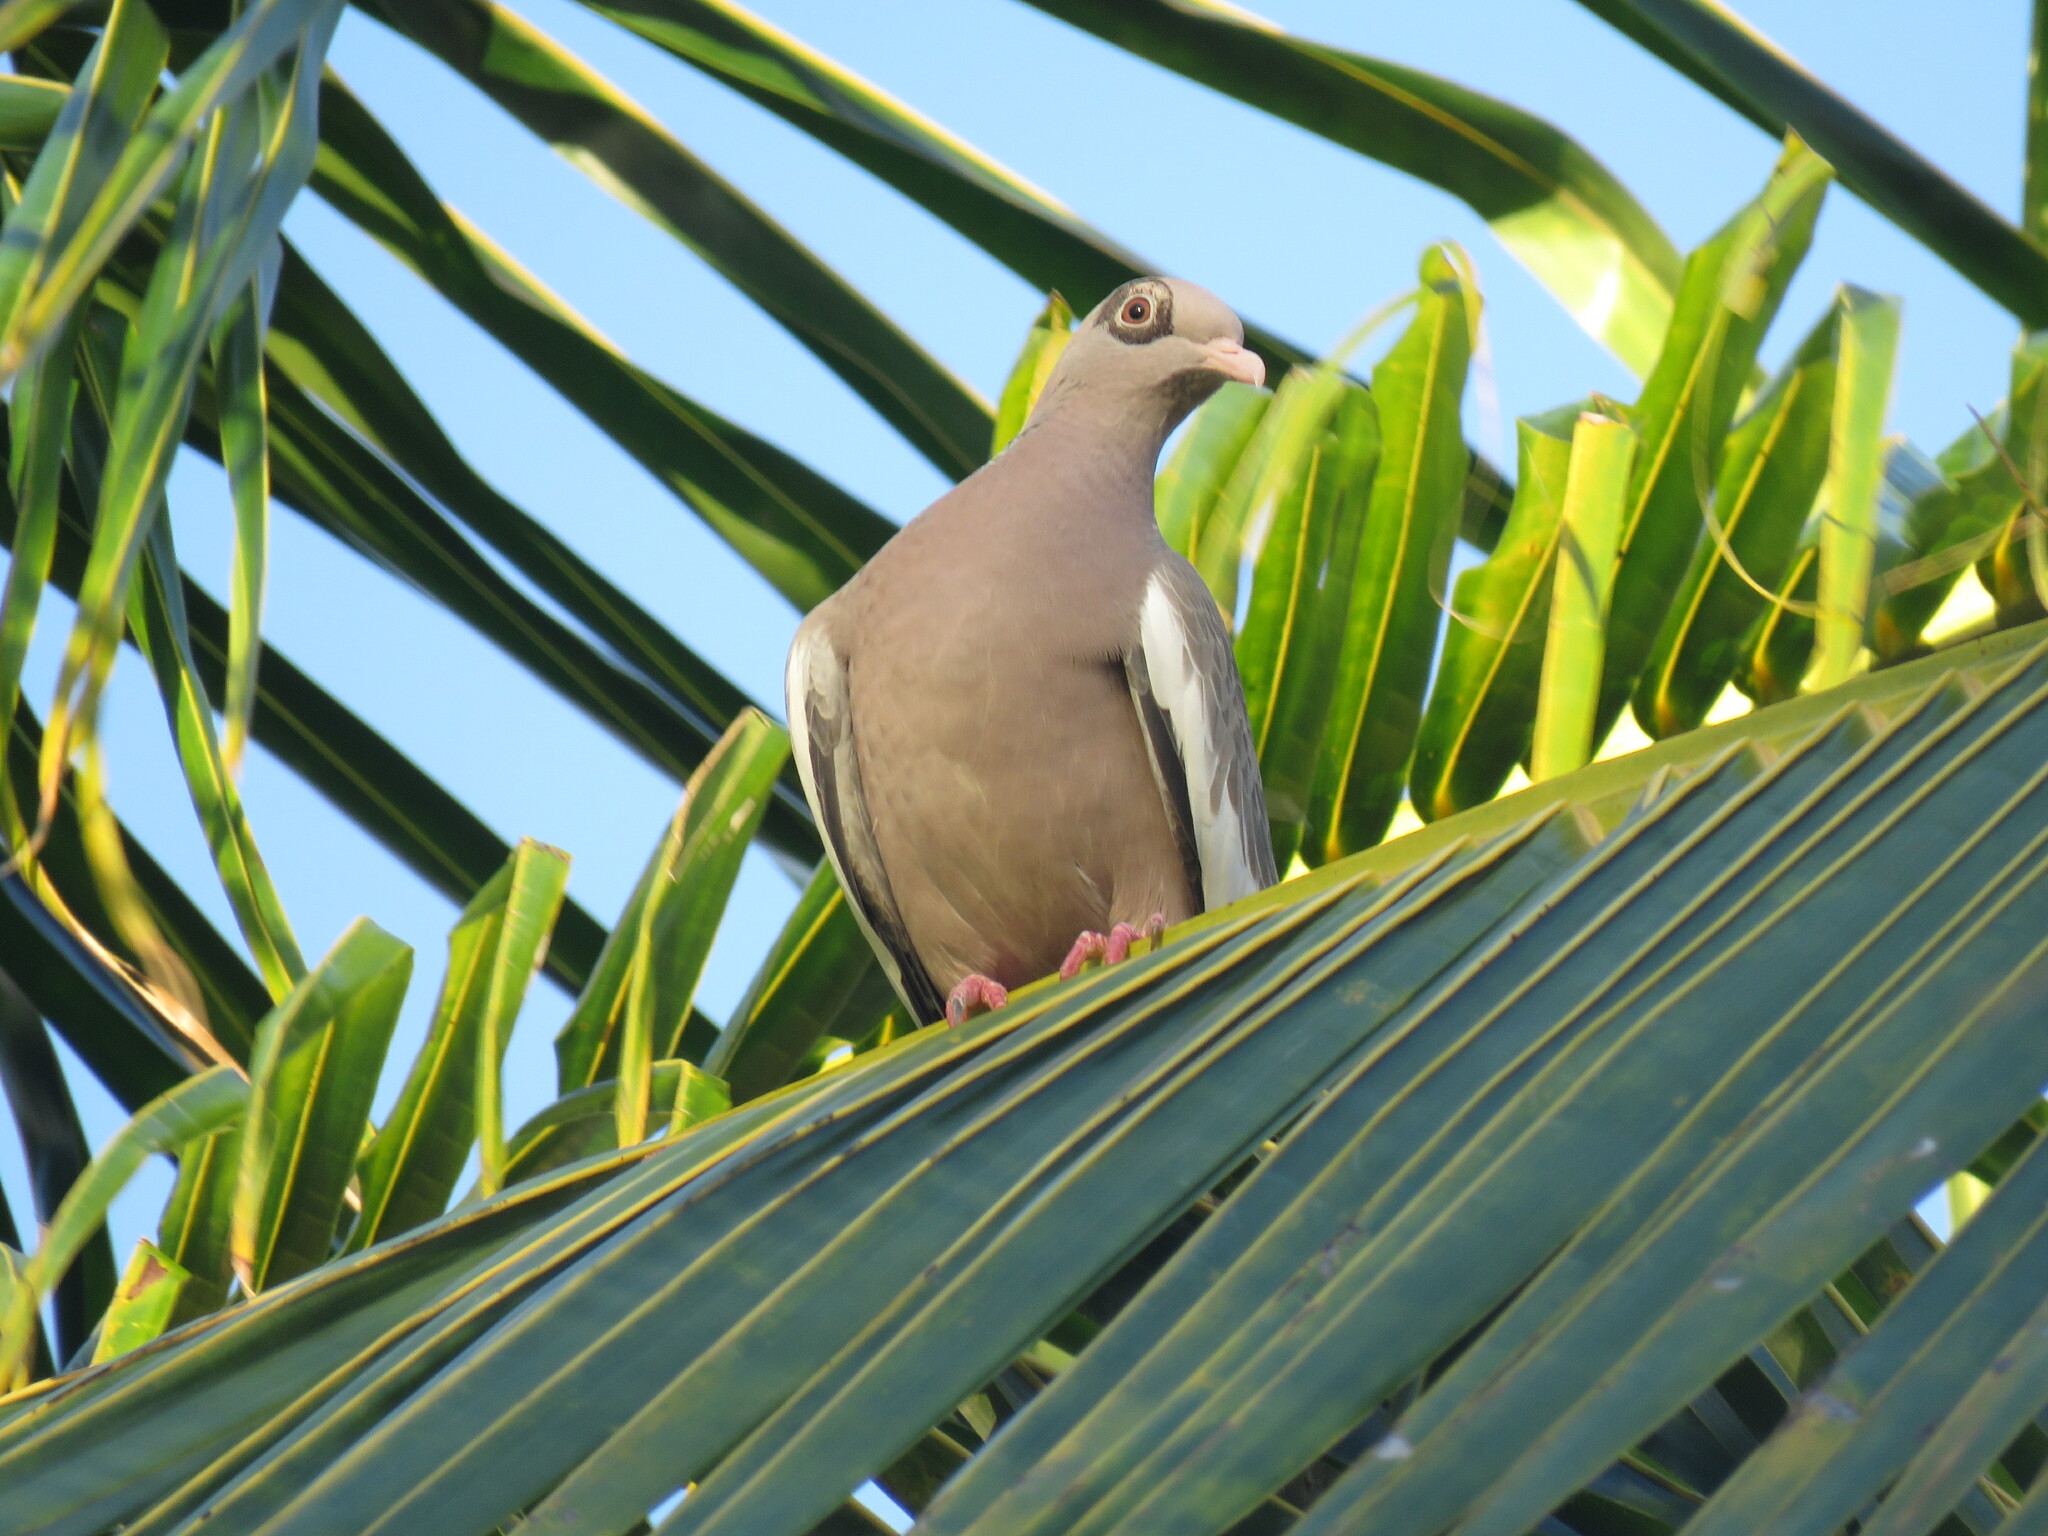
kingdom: Animalia
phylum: Chordata
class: Aves
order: Columbiformes
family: Columbidae
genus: Patagioenas
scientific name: Patagioenas corensis
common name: Bare-eyed pigeon
